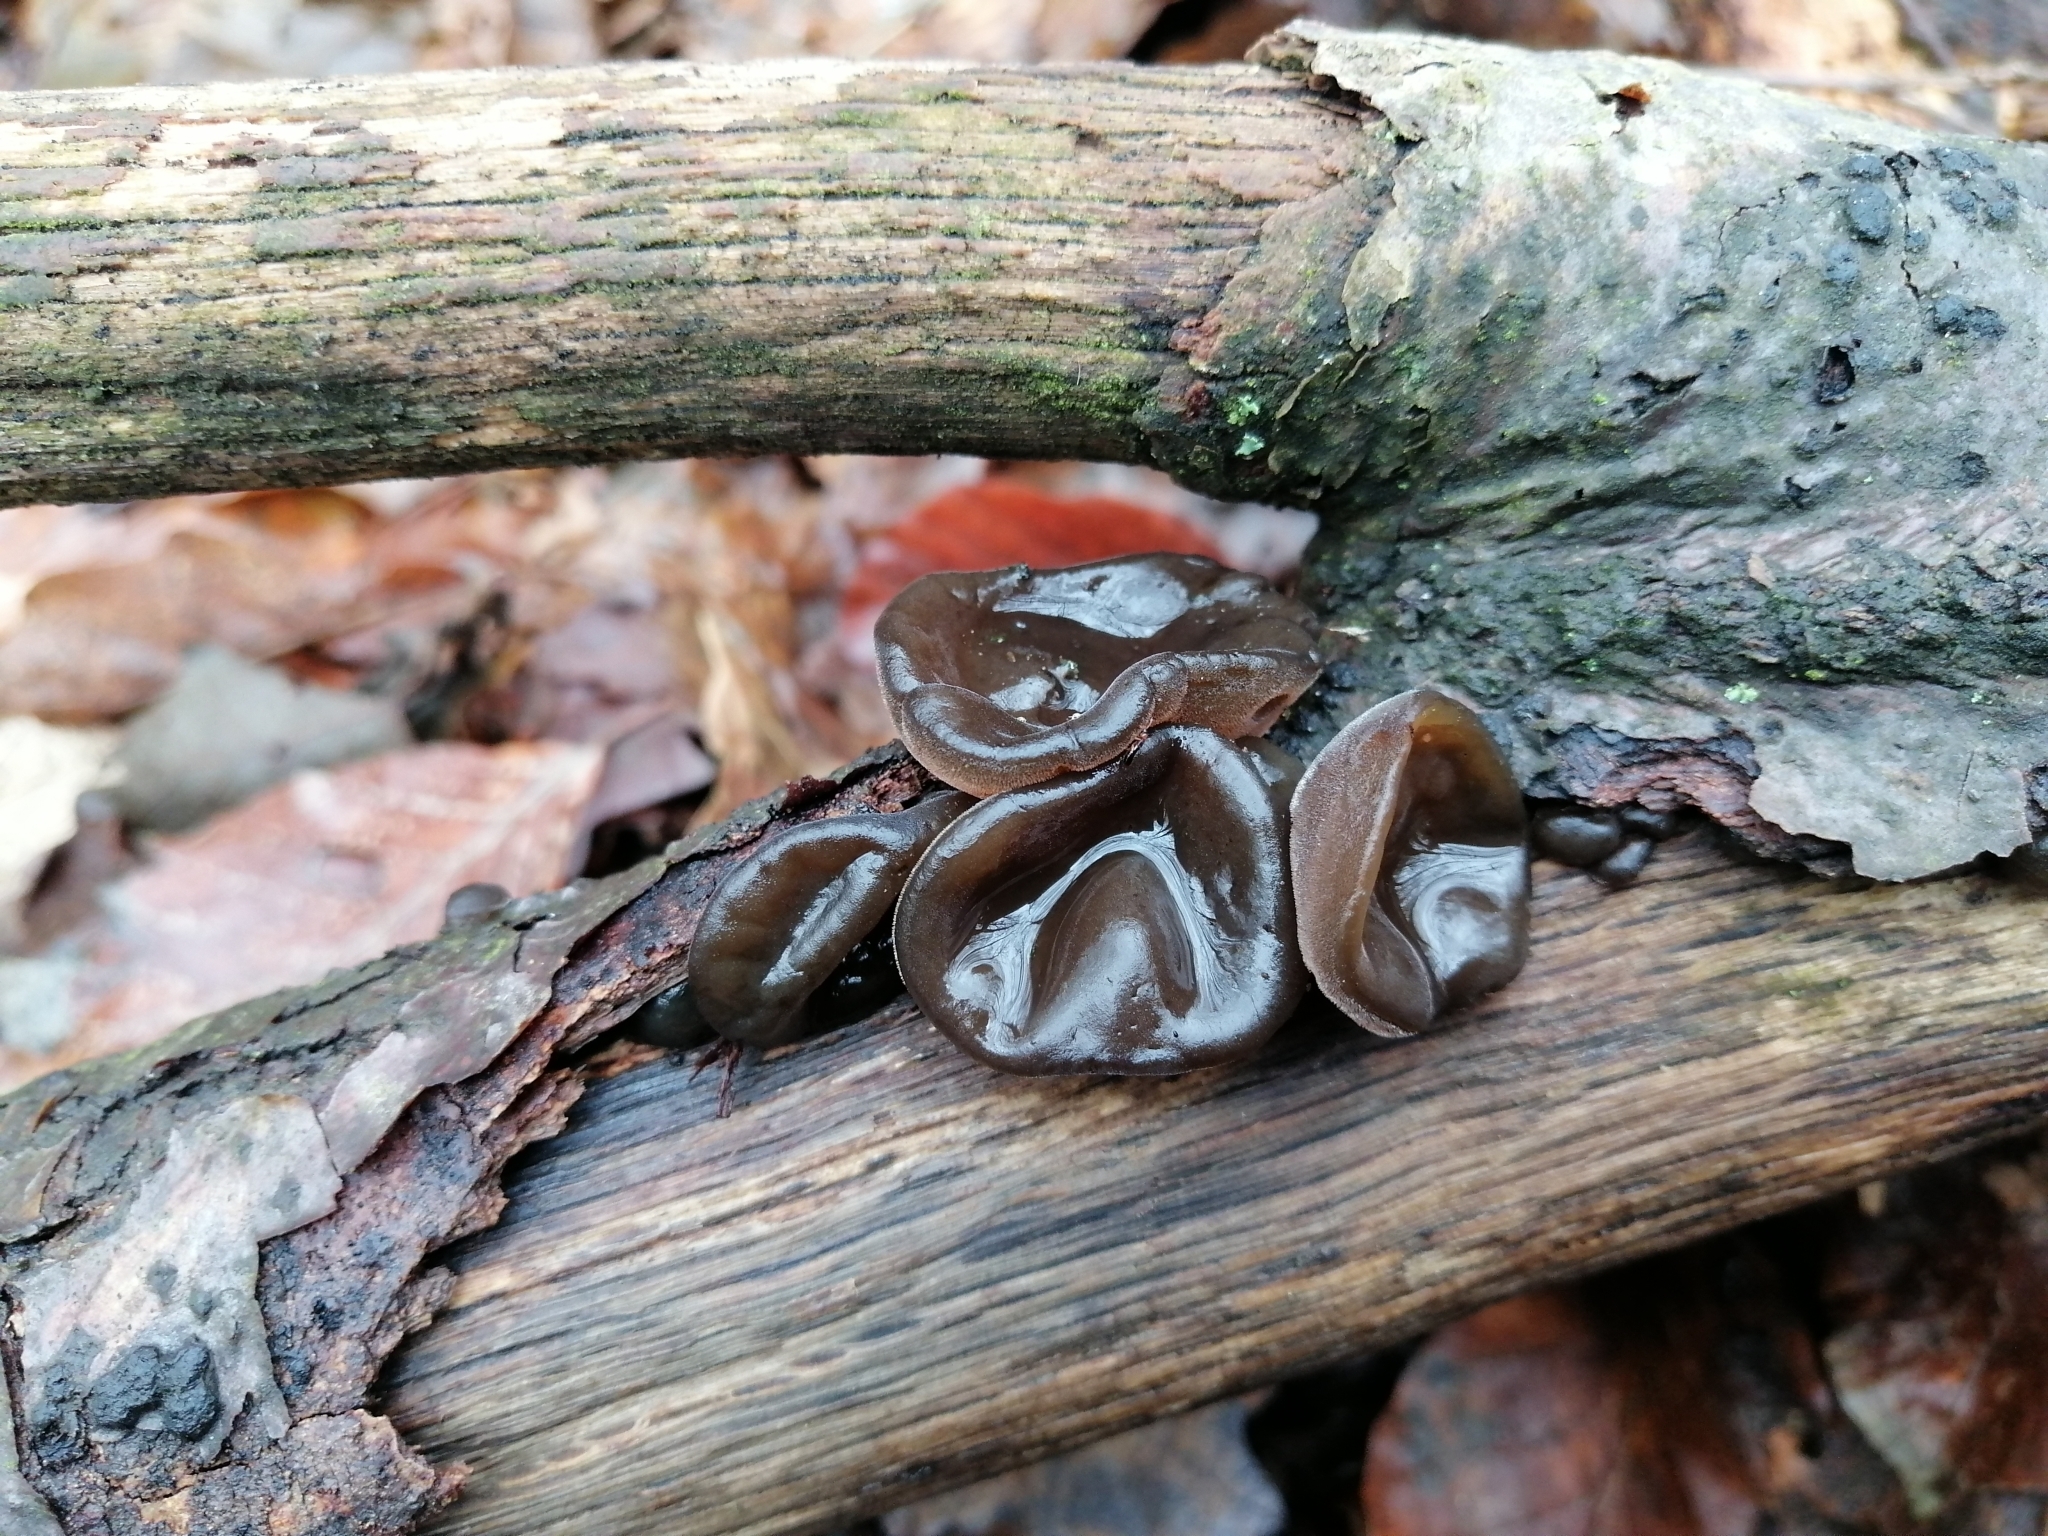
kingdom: Fungi
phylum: Basidiomycota
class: Agaricomycetes
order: Auriculariales
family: Auriculariaceae
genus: Auricularia
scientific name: Auricularia auricula-judae
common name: Jelly ear
